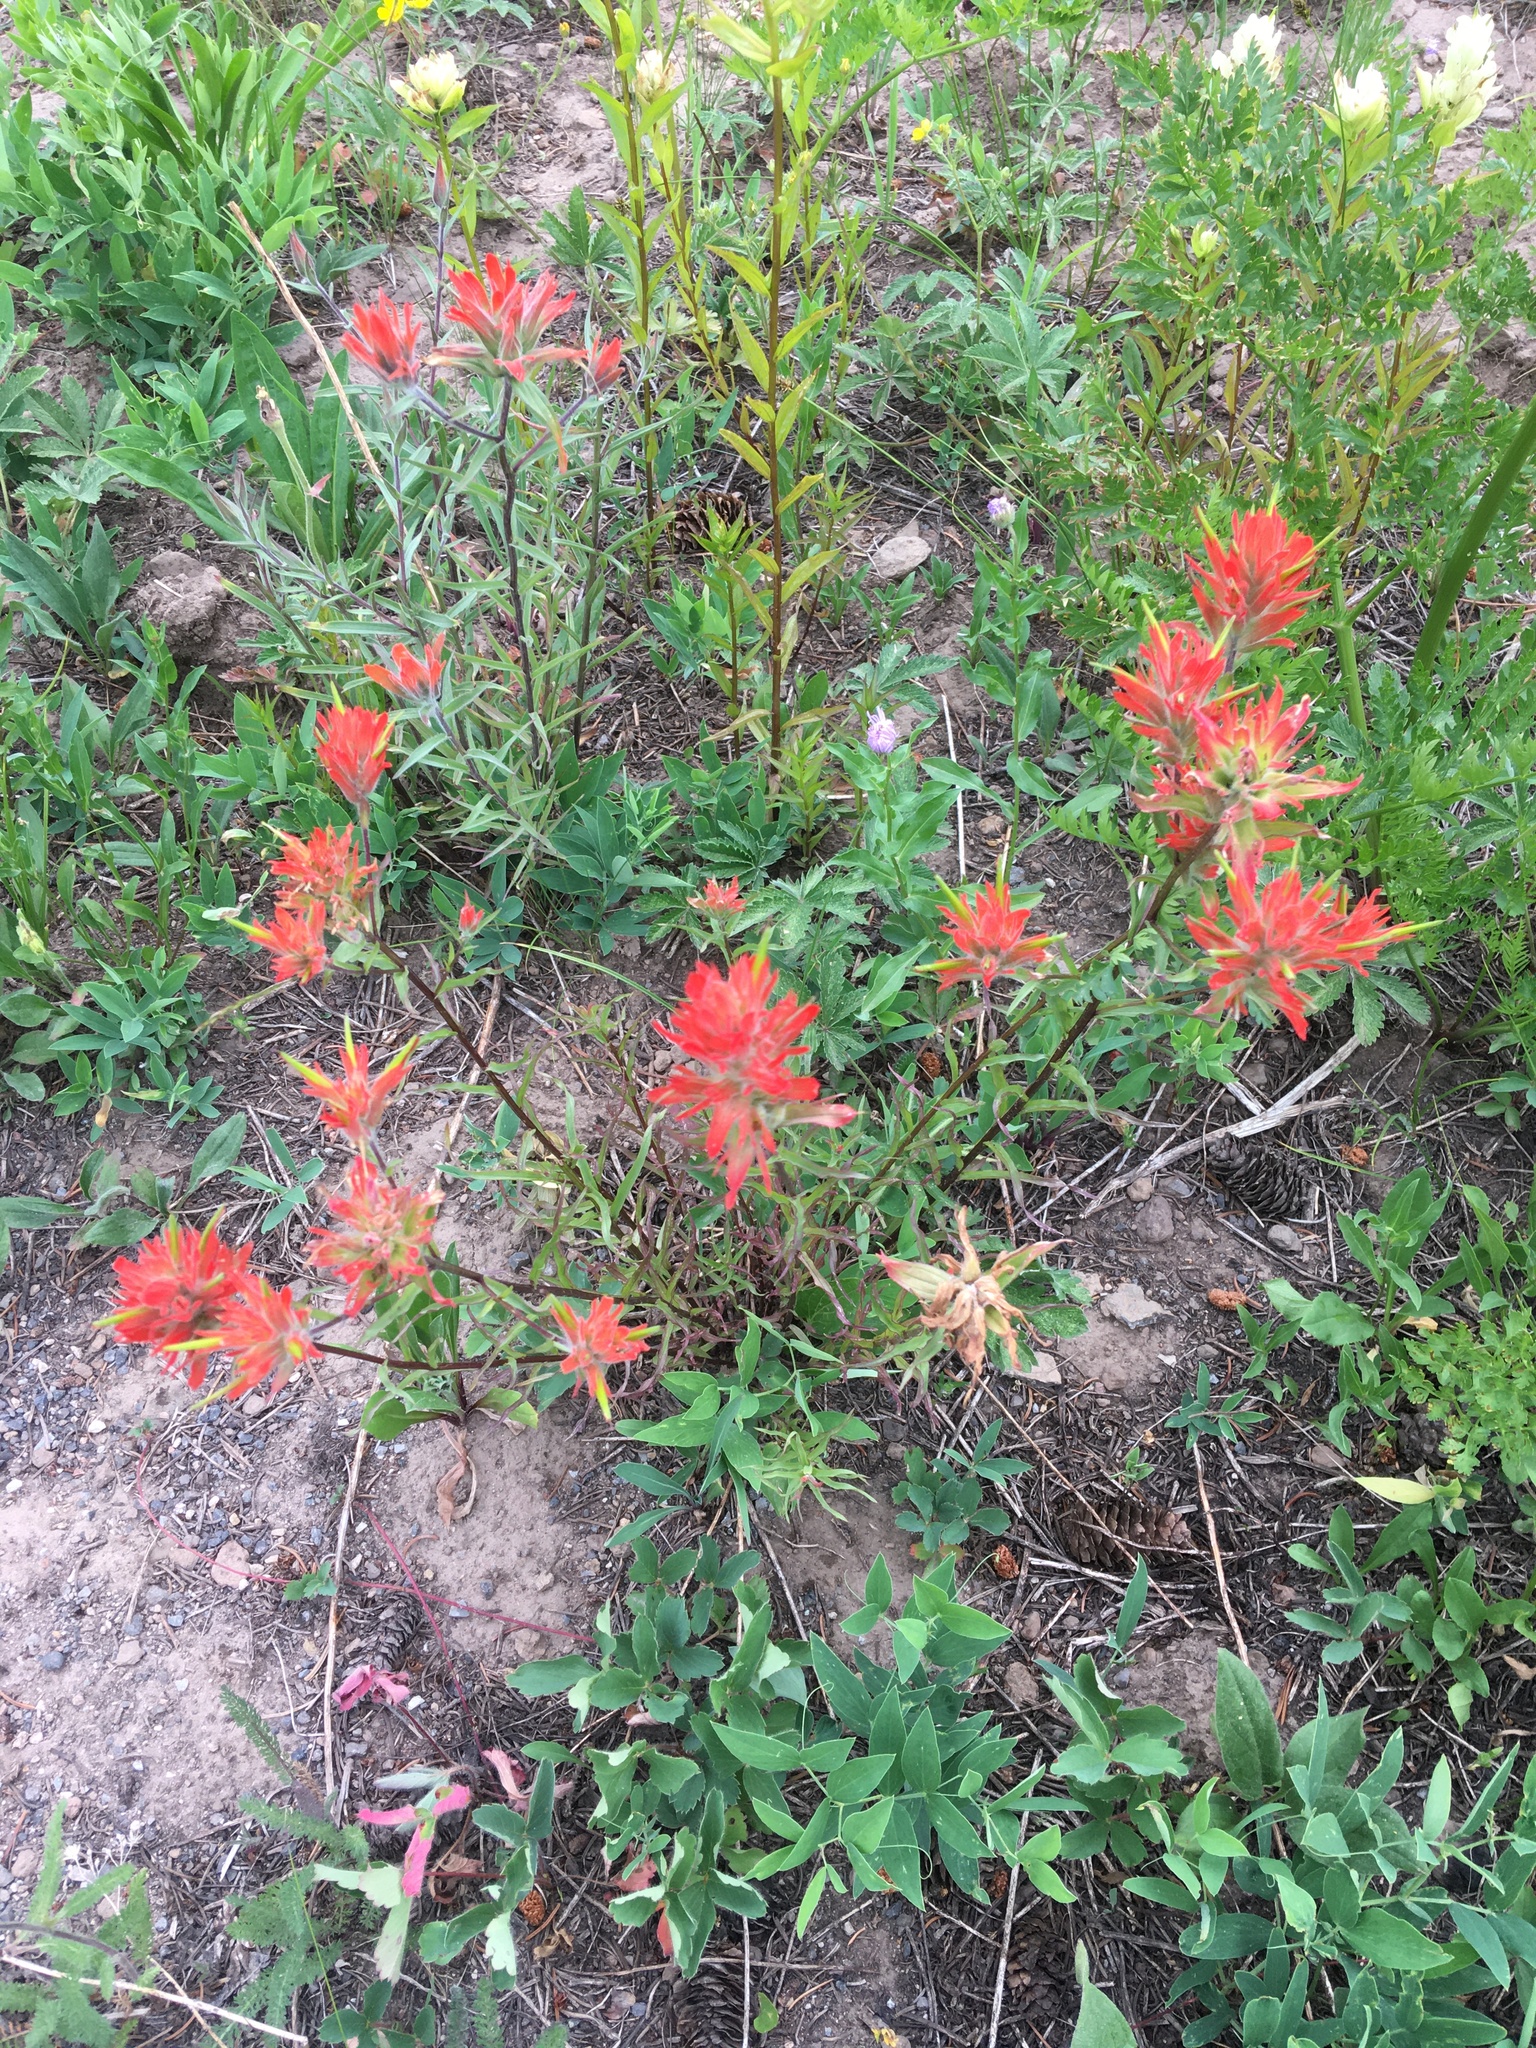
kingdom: Plantae
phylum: Tracheophyta
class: Magnoliopsida
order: Lamiales
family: Orobanchaceae
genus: Castilleja
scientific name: Castilleja miniata
